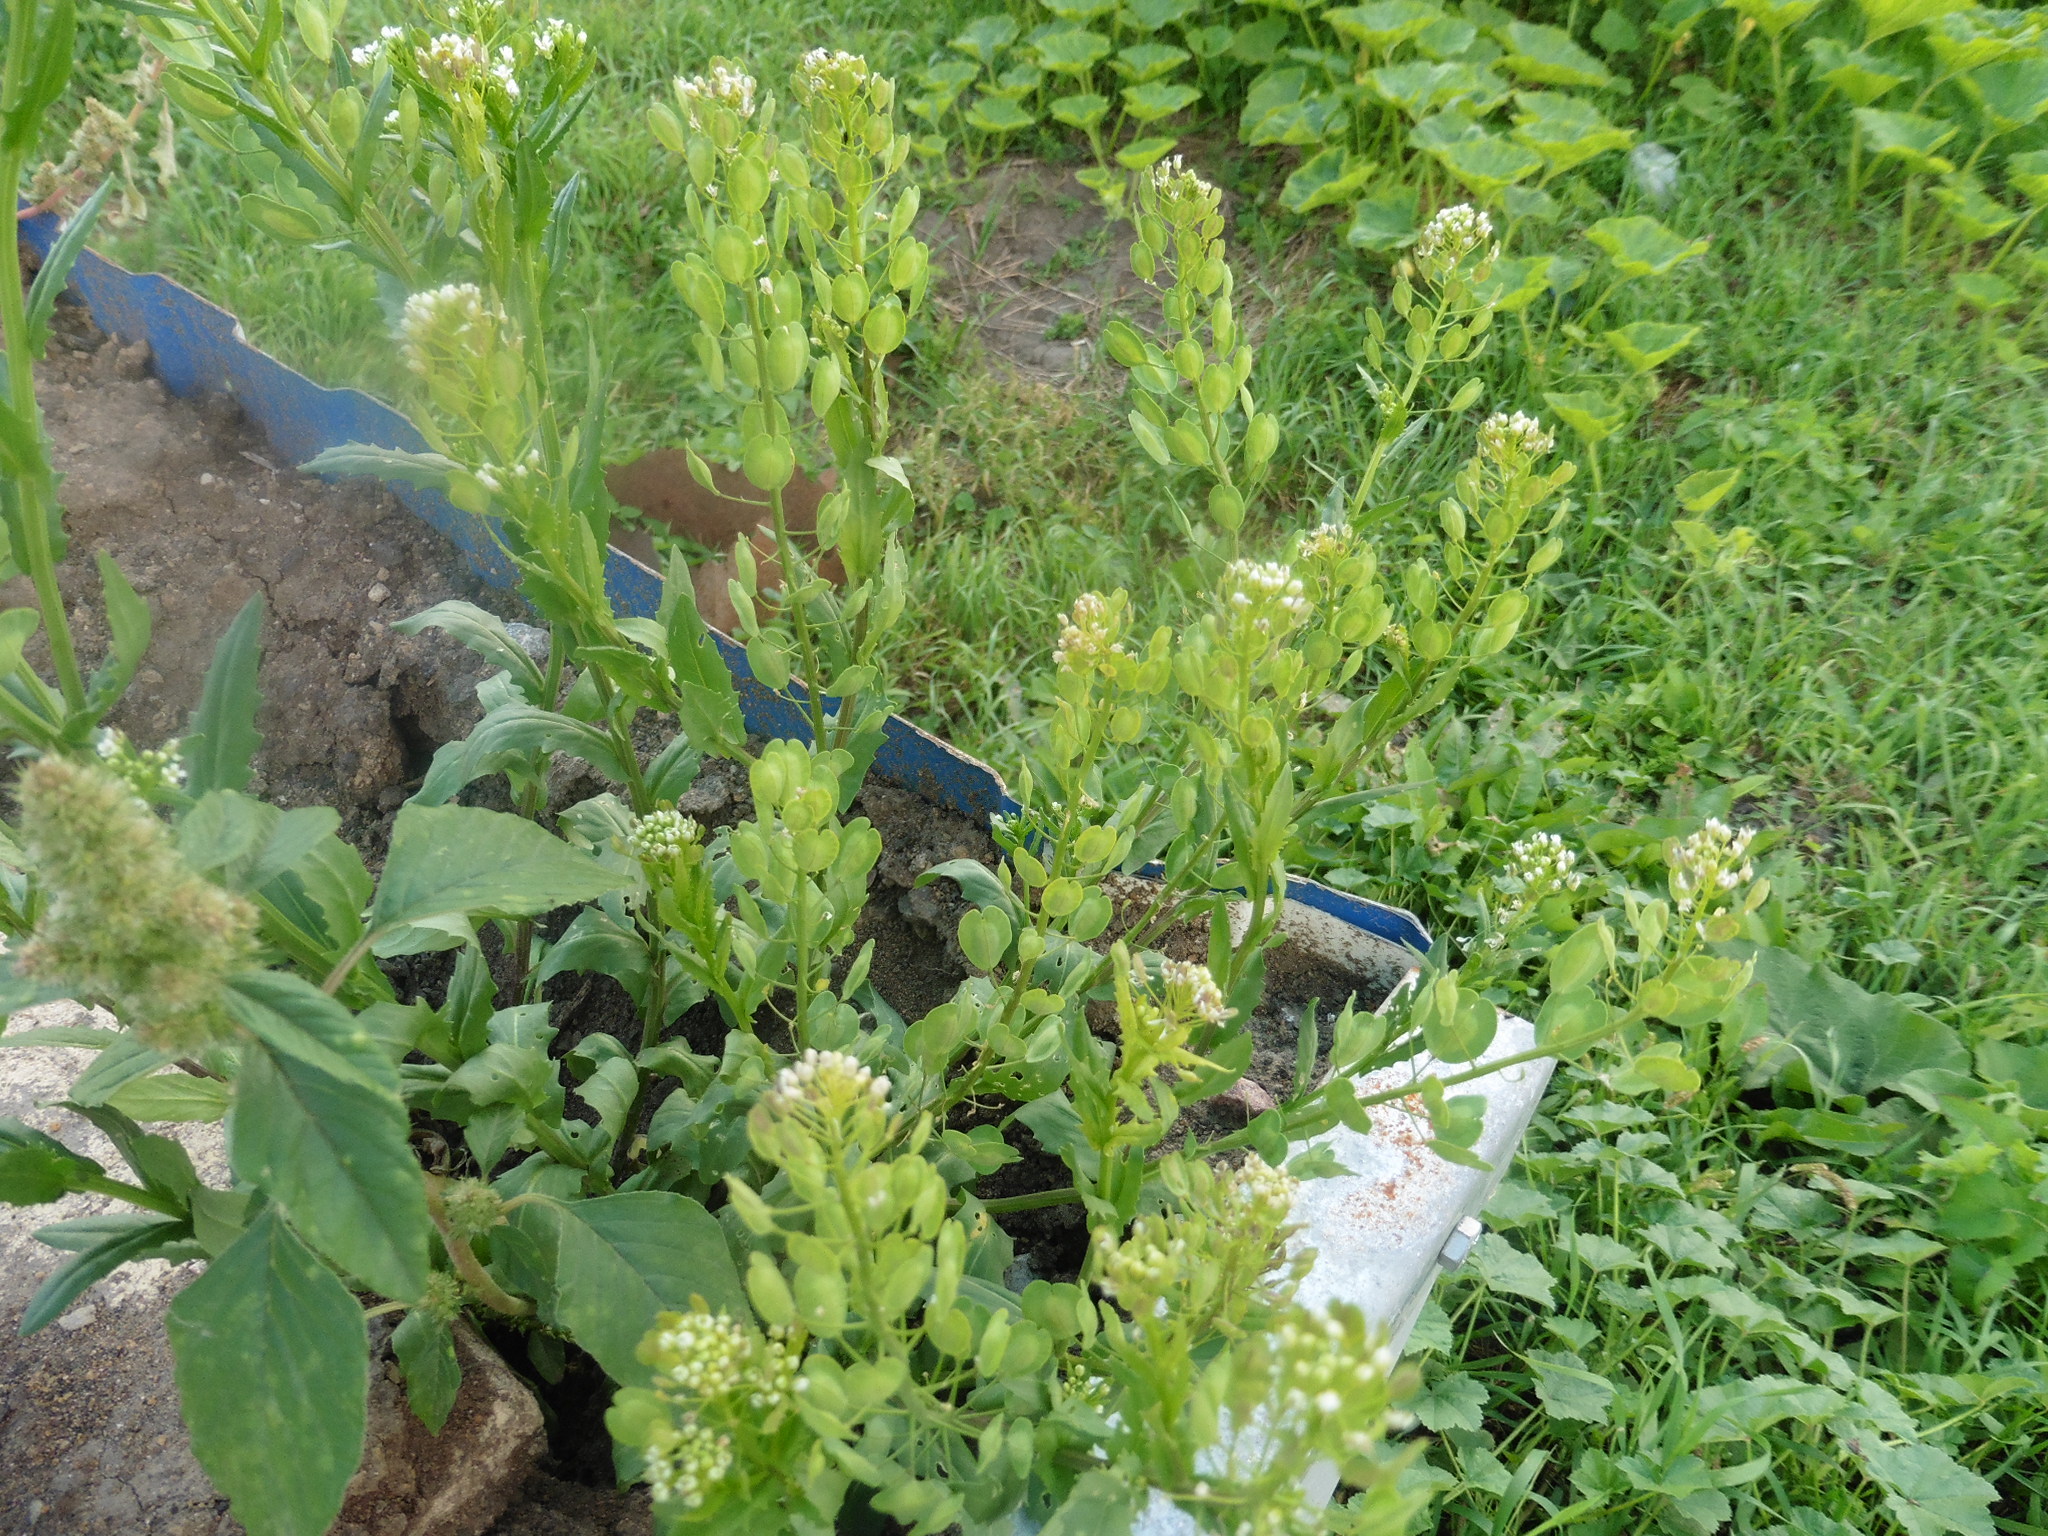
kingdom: Plantae
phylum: Tracheophyta
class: Magnoliopsida
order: Brassicales
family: Brassicaceae
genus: Thlaspi
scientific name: Thlaspi arvense
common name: Field pennycress
